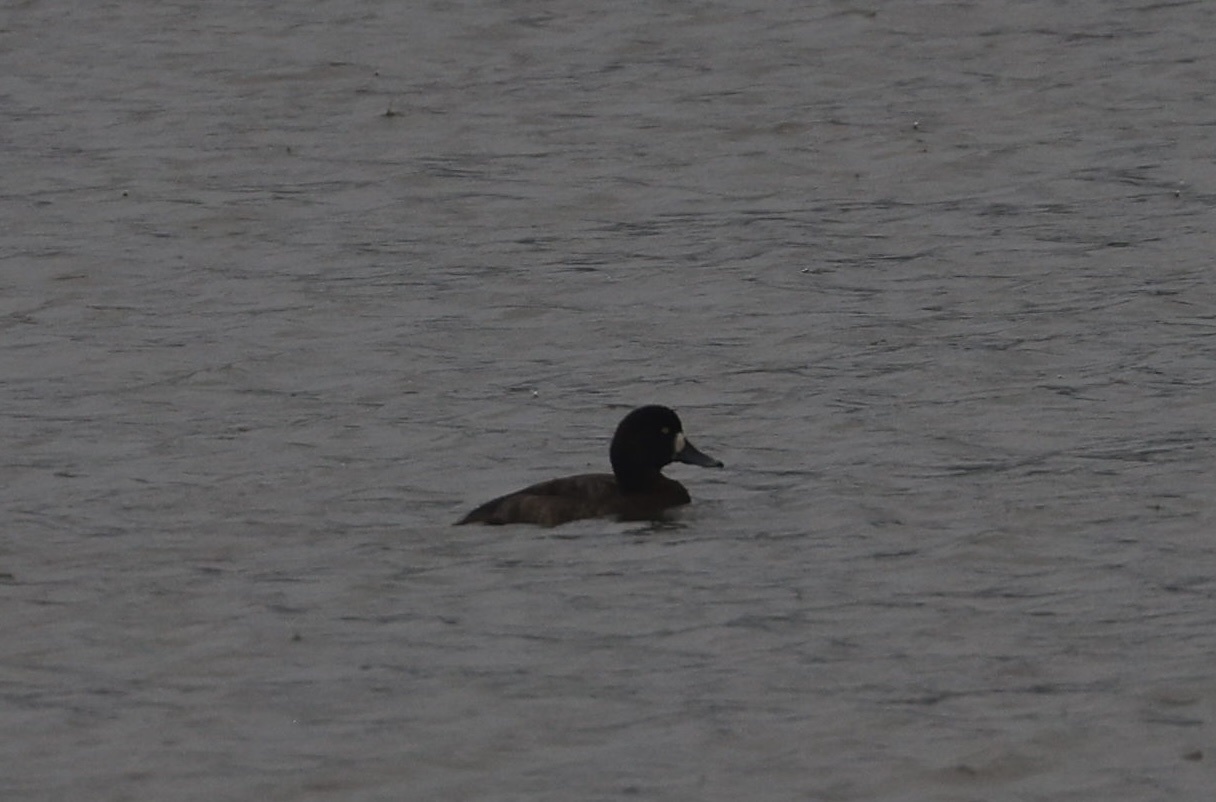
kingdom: Animalia
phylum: Chordata
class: Aves
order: Anseriformes
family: Anatidae
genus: Aythya
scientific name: Aythya marila
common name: Greater scaup
